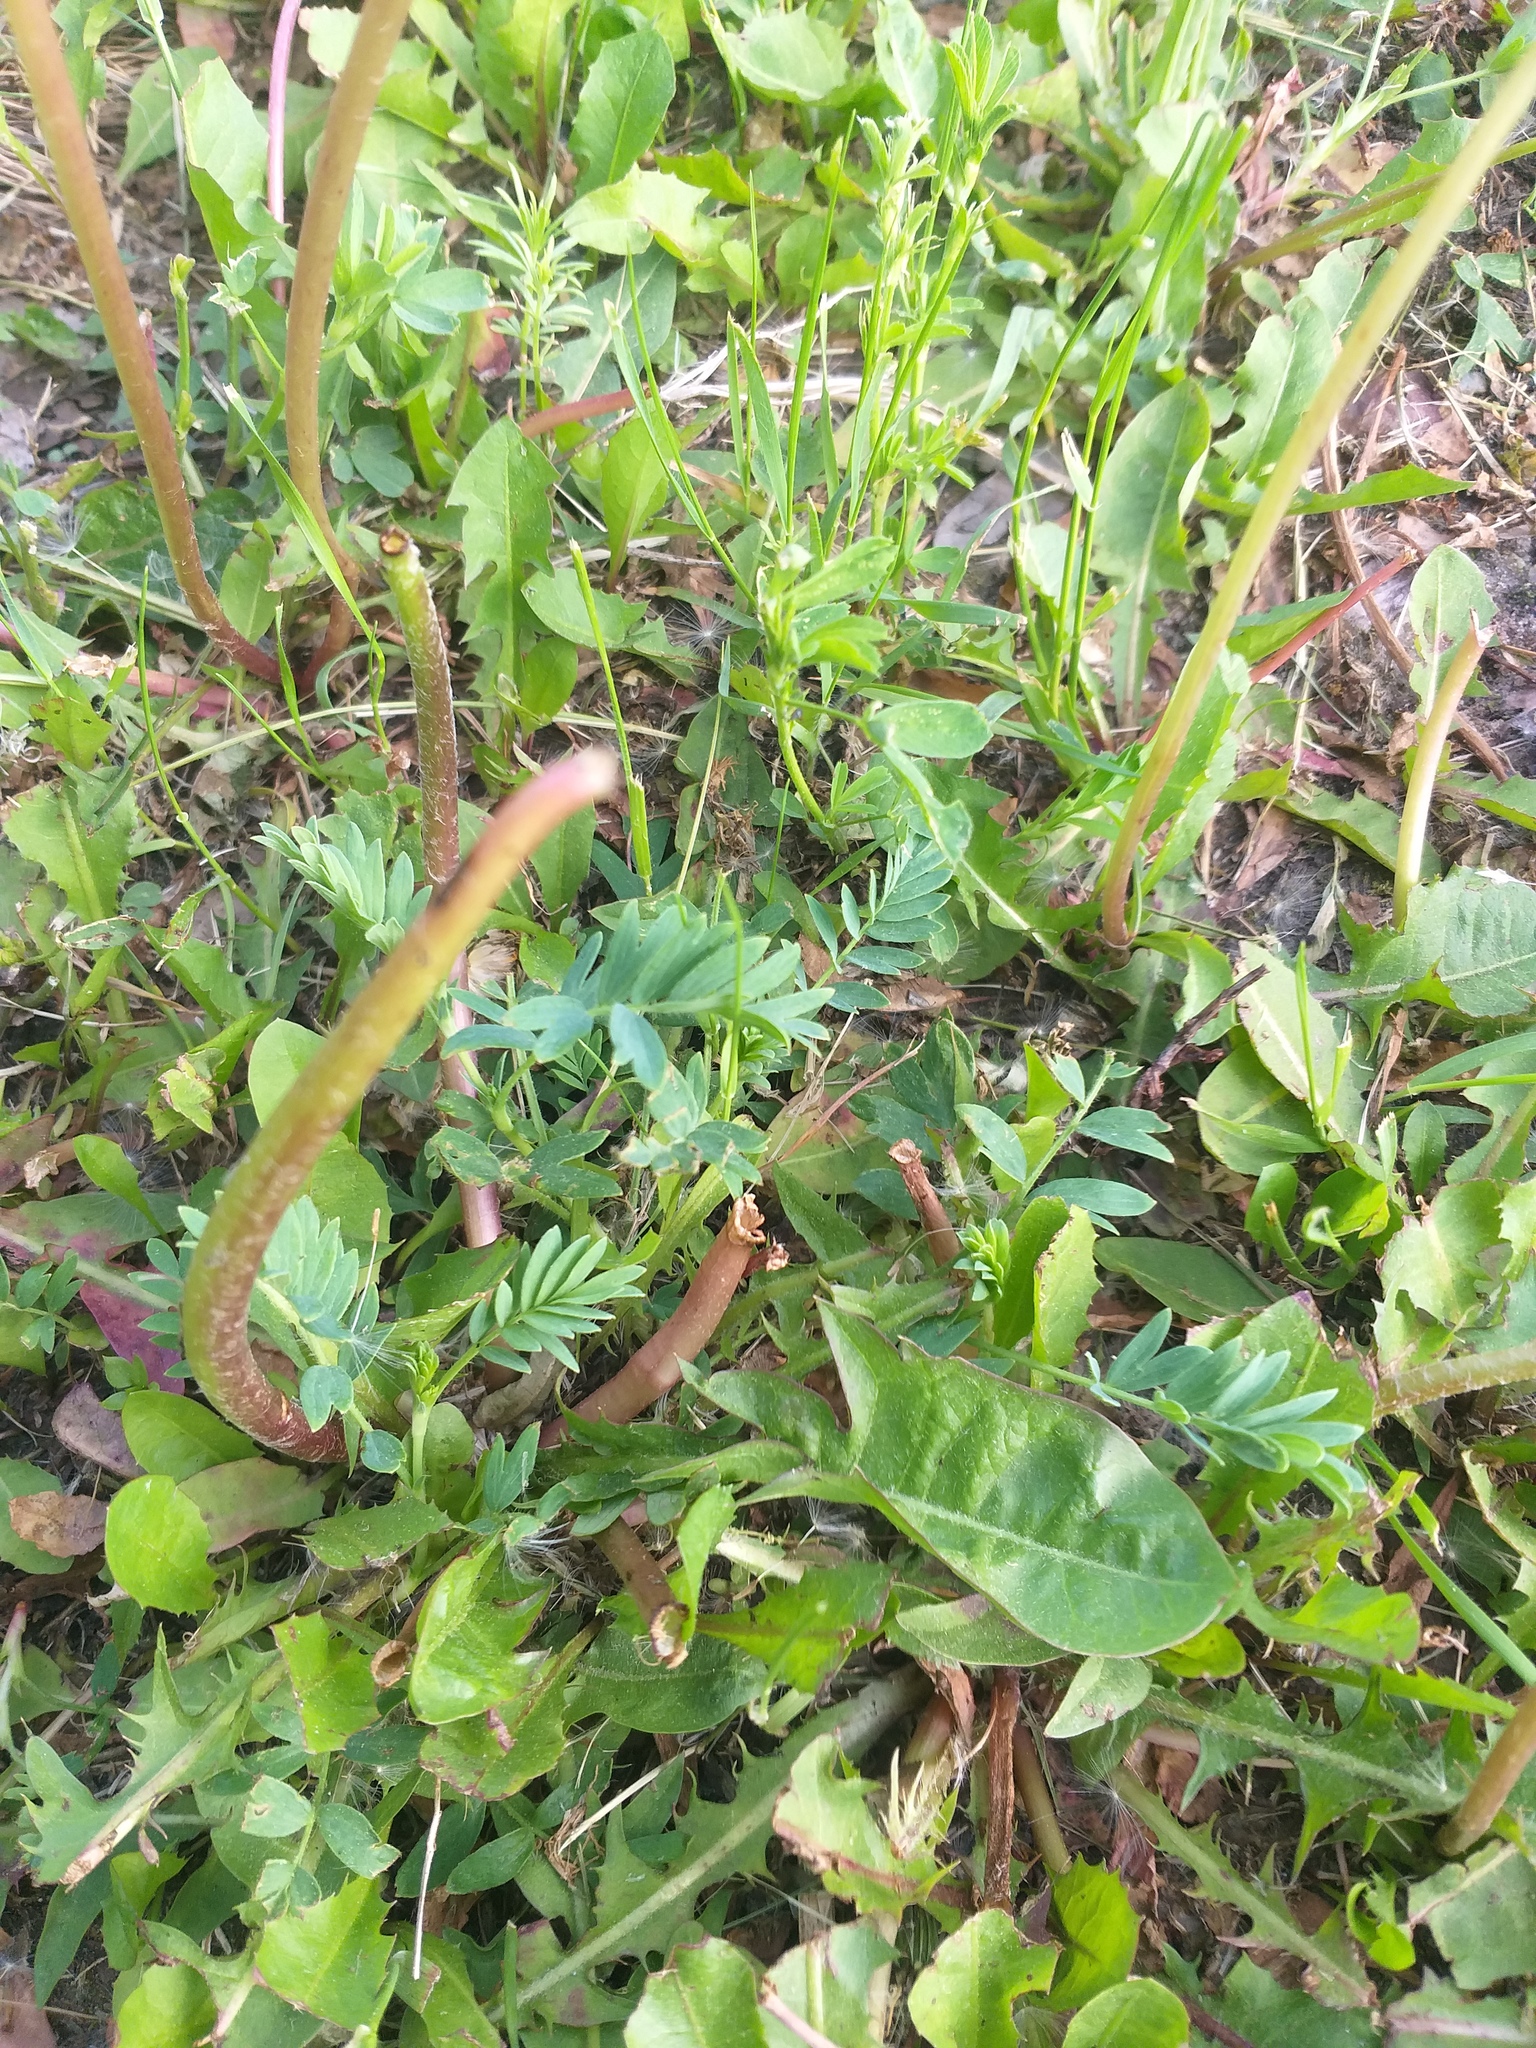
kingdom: Plantae
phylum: Tracheophyta
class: Magnoliopsida
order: Rosales
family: Rosaceae
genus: Sibbaldianthe
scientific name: Sibbaldianthe bifurca
